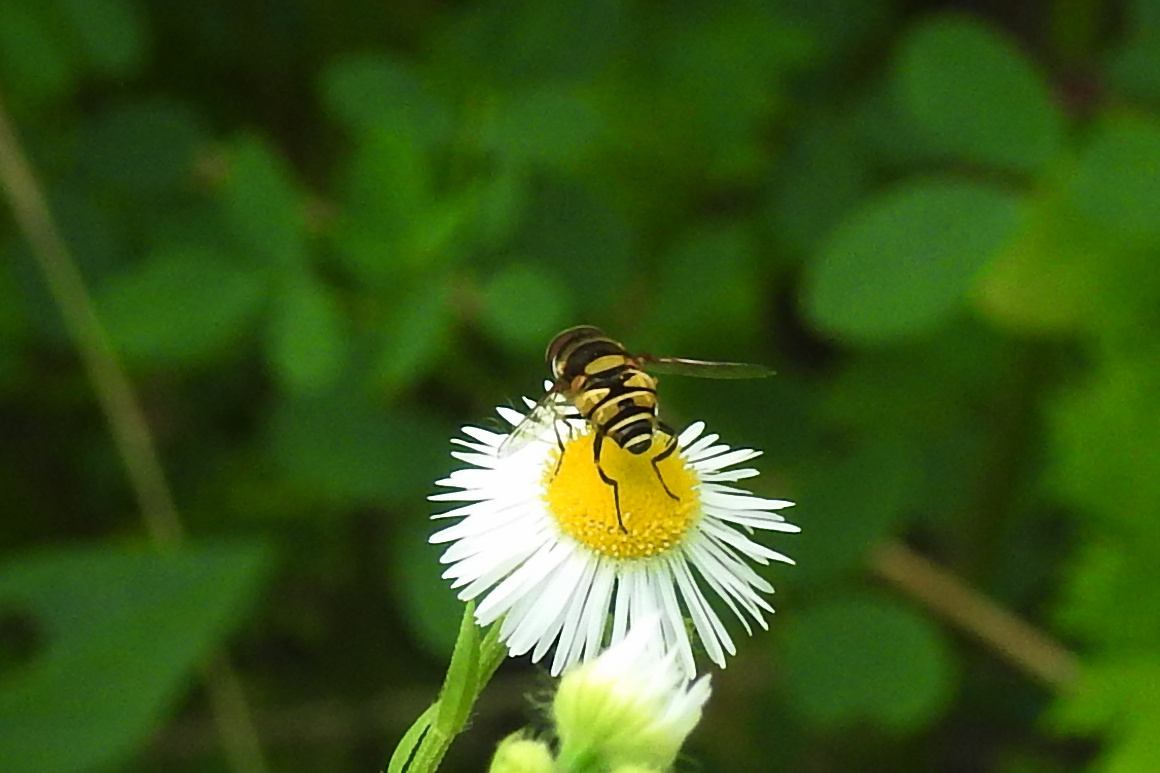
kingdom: Animalia
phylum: Arthropoda
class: Insecta
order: Diptera
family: Syrphidae
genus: Eristalis
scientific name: Eristalis transversa
